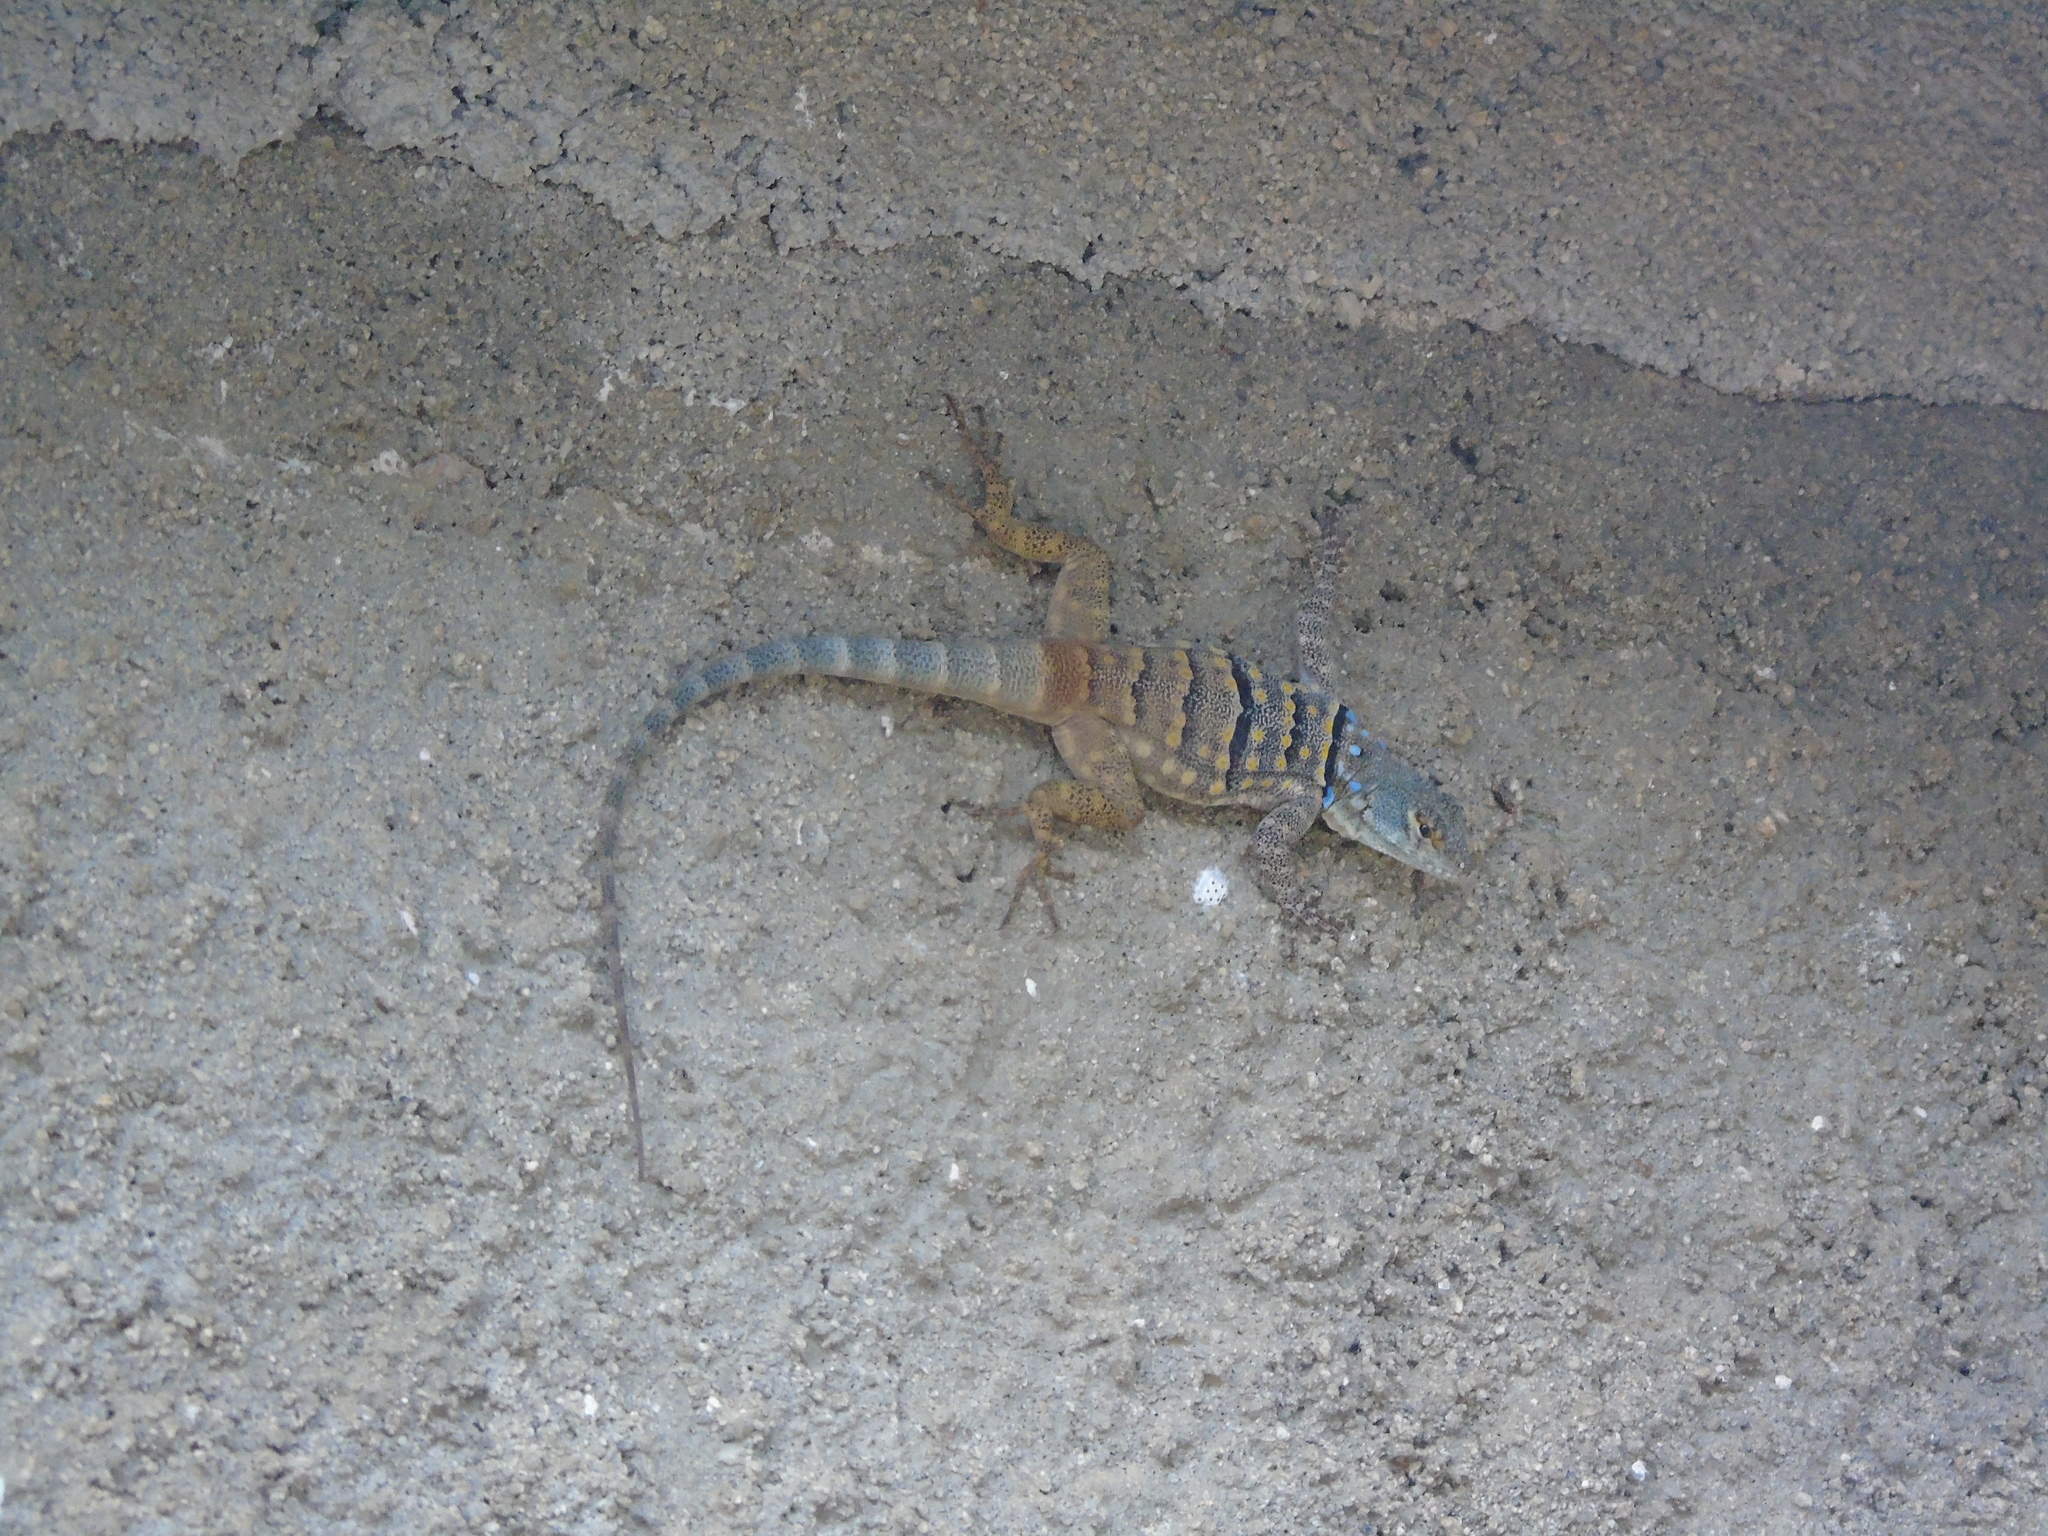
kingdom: Animalia
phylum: Chordata
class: Squamata
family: Phrynosomatidae
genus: Petrosaurus
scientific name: Petrosaurus thalassinus
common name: Baja california rock lizard
